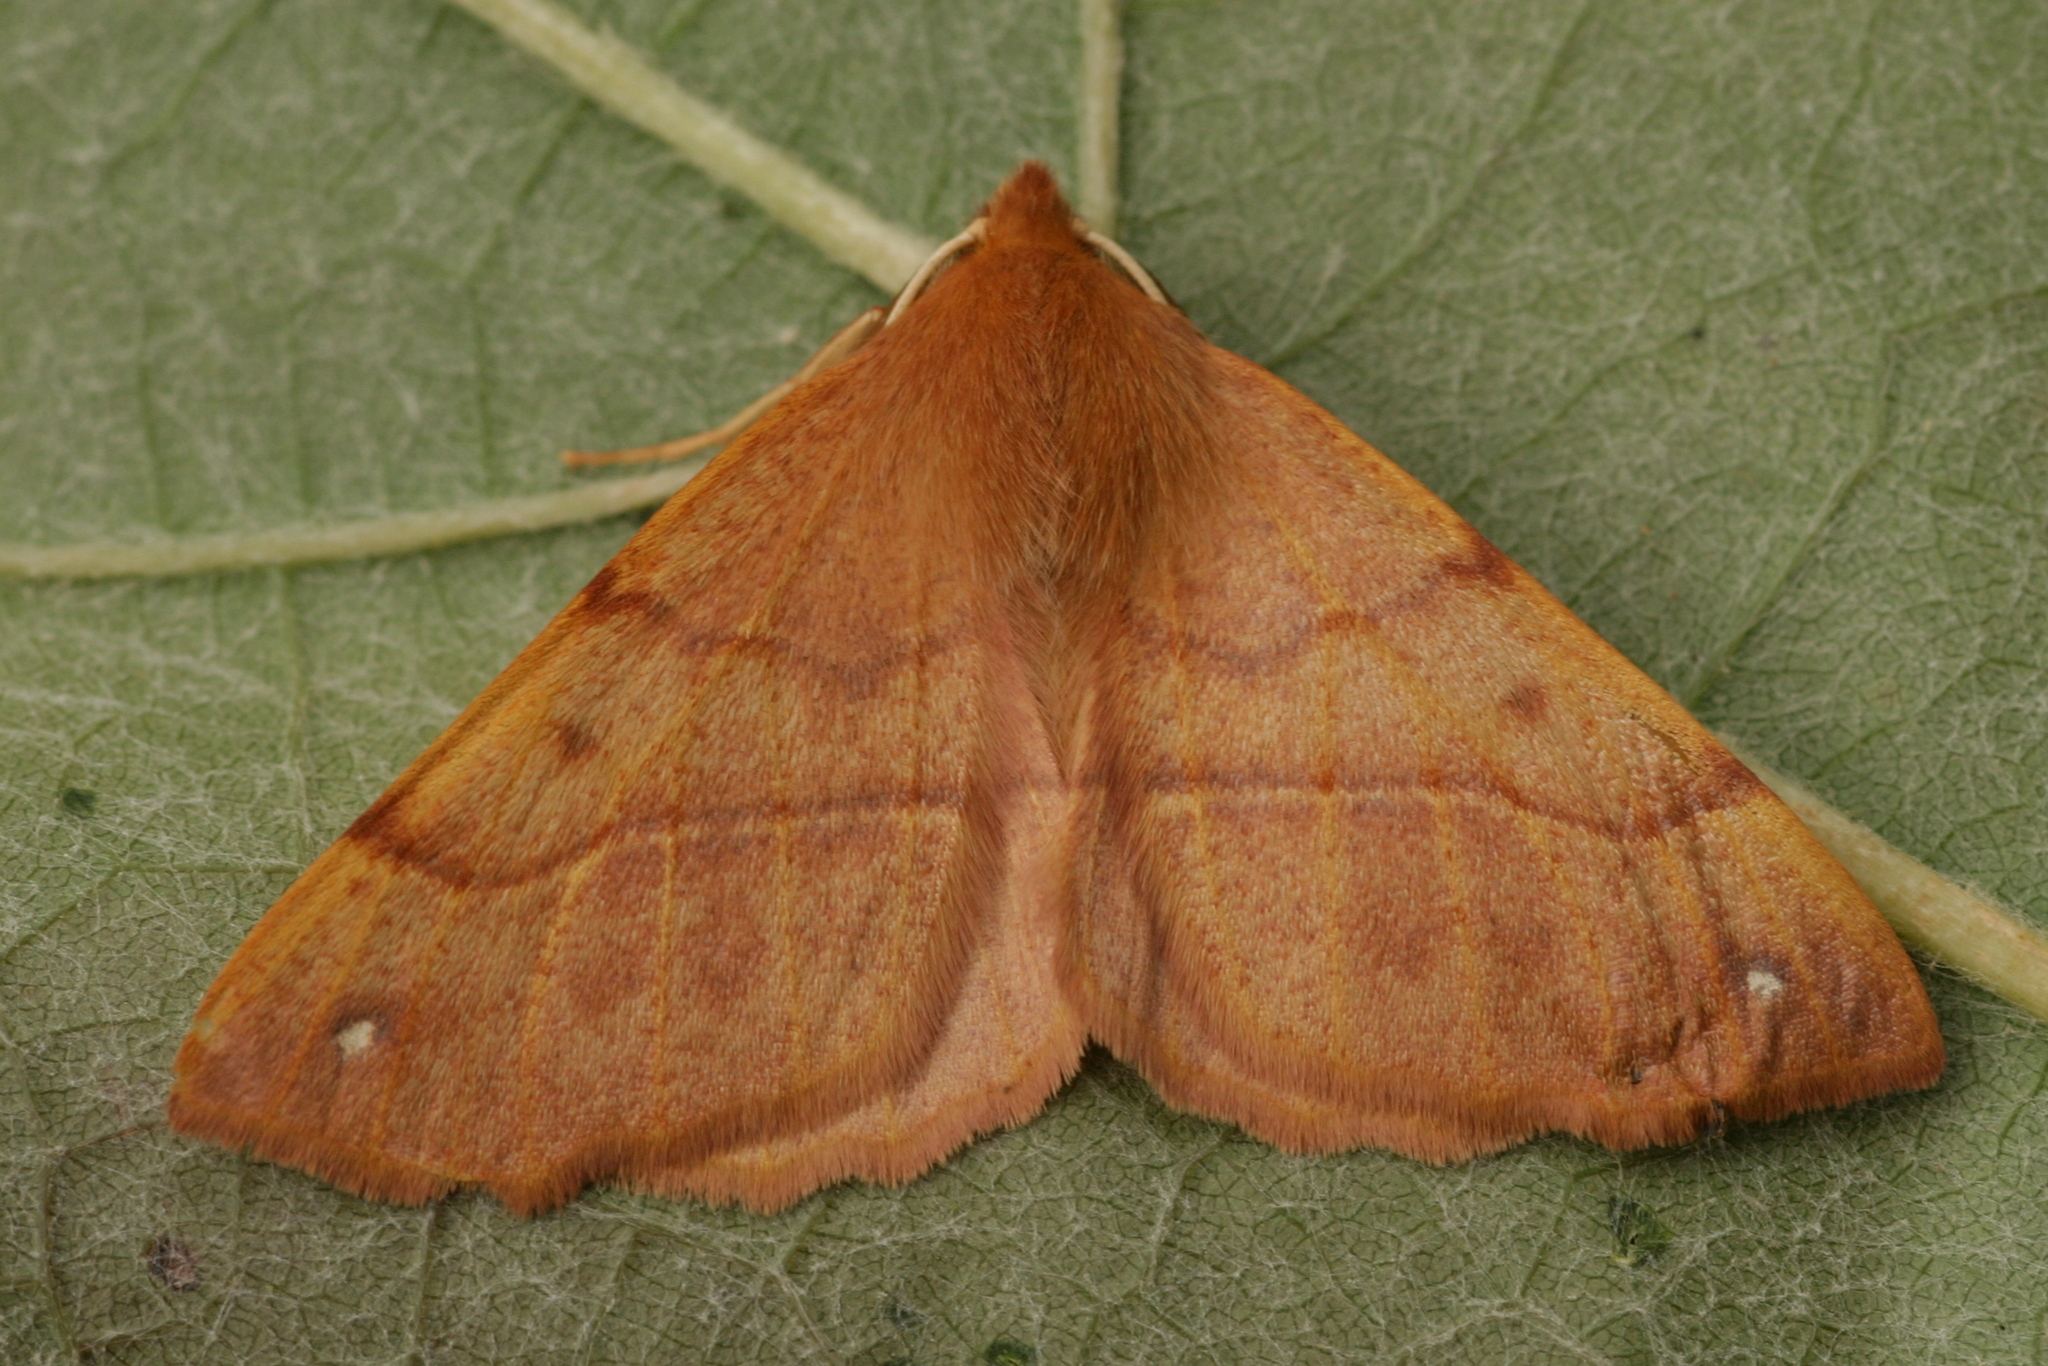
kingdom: Animalia
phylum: Arthropoda
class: Insecta
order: Lepidoptera
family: Geometridae
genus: Colotois
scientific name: Colotois pennaria
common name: Feathered thorn
